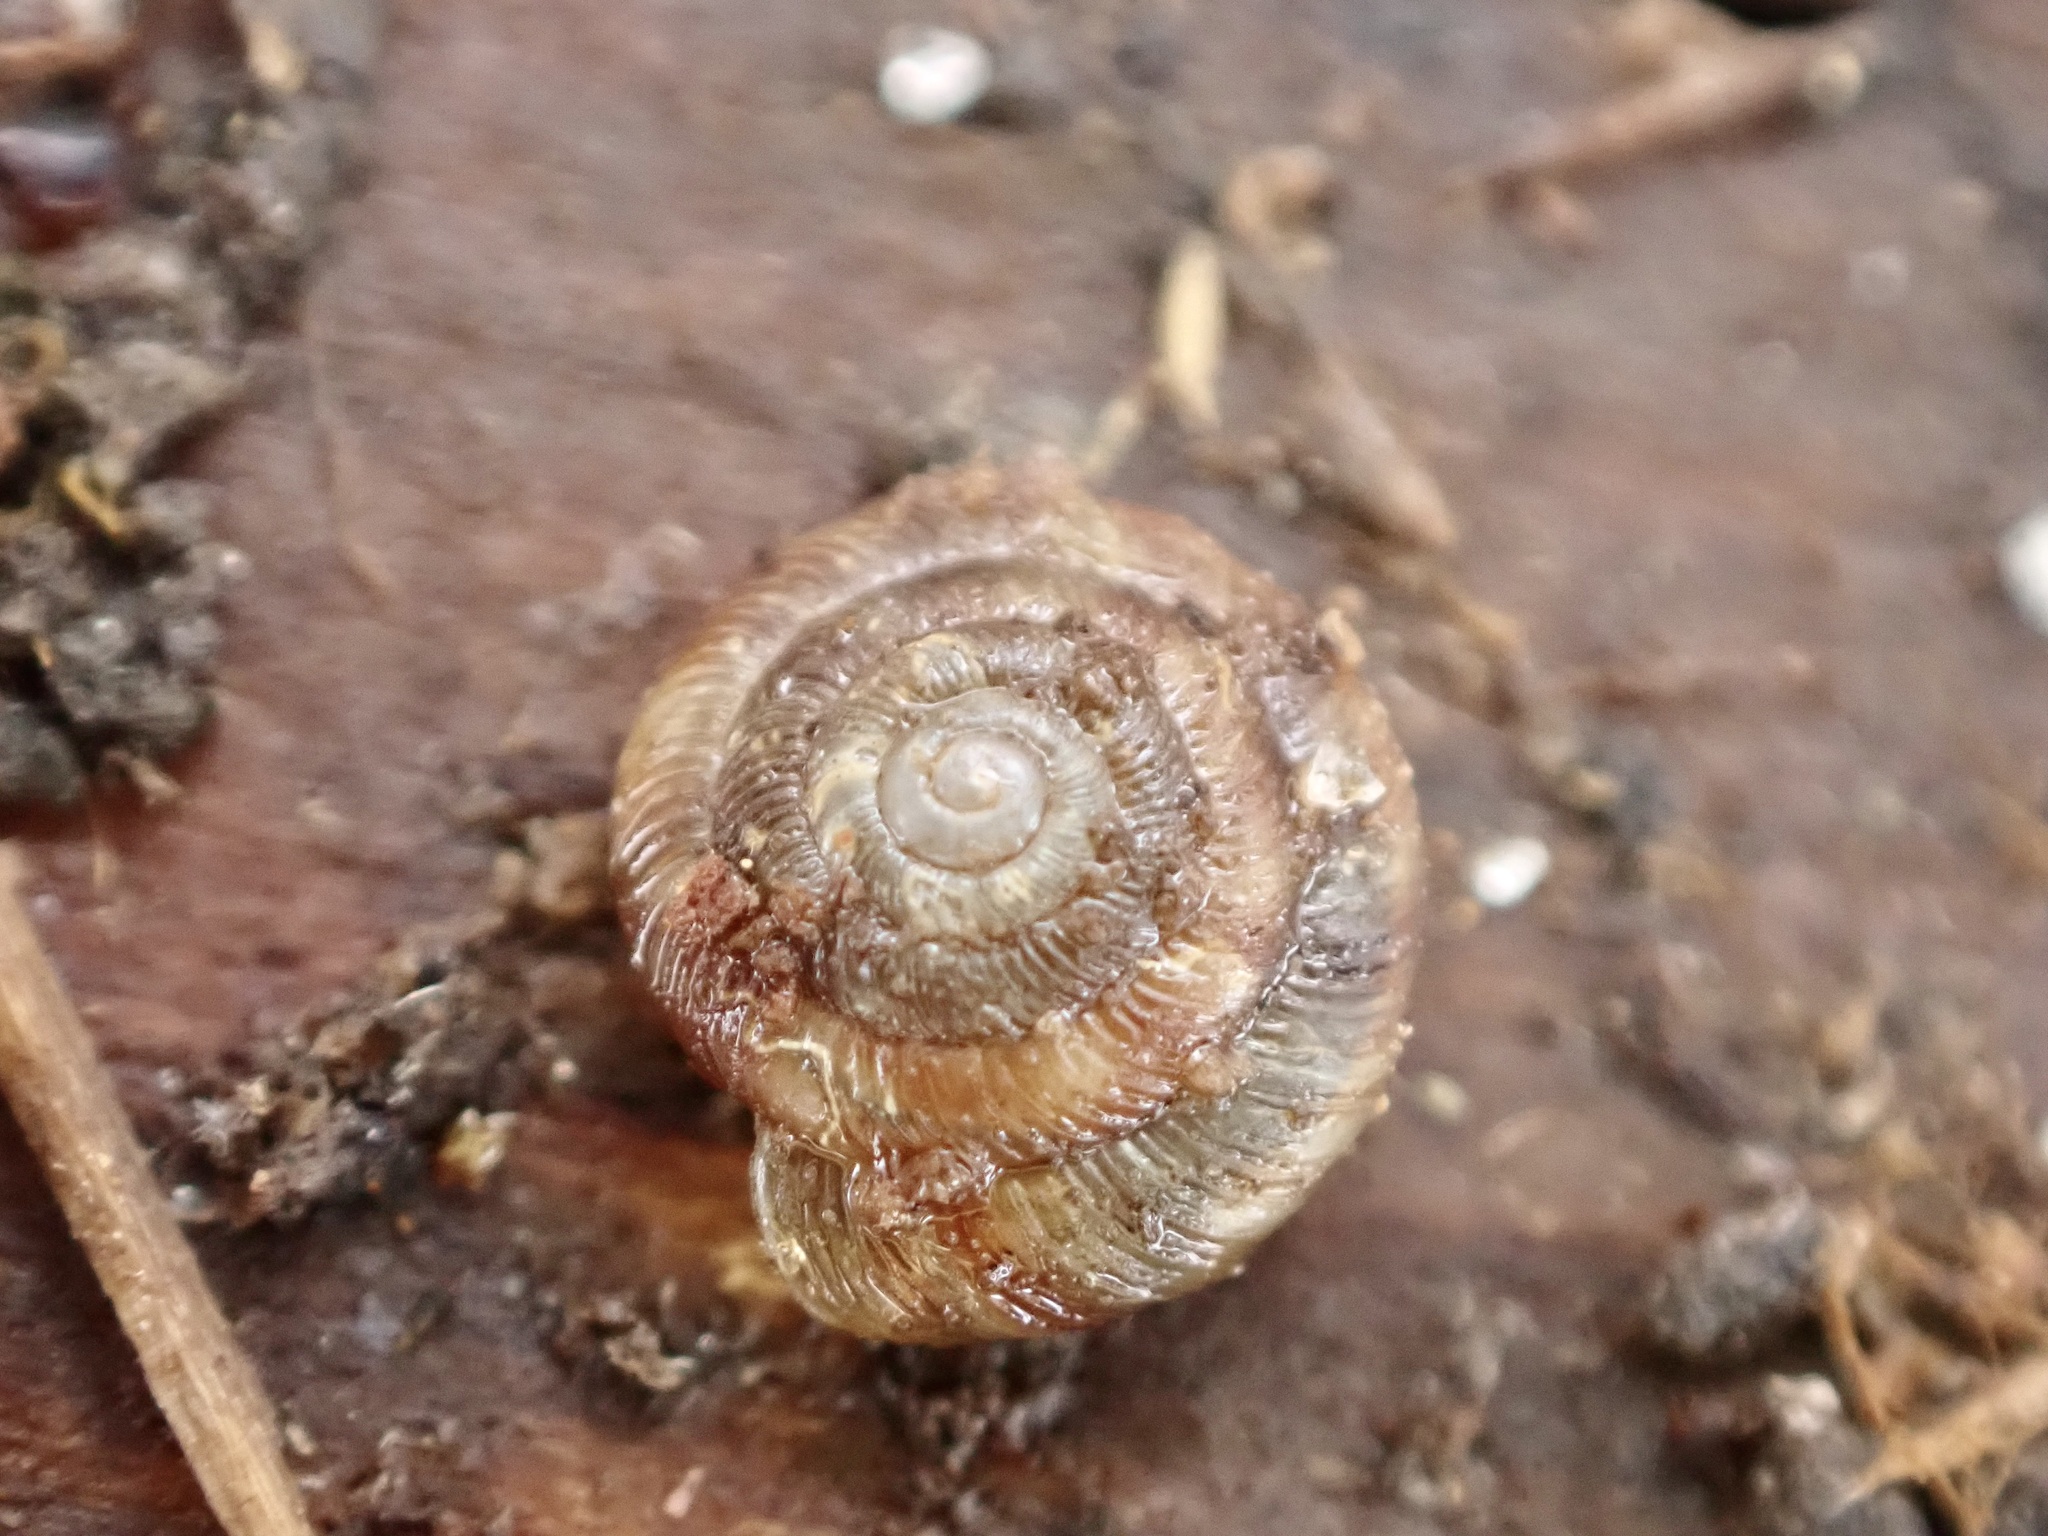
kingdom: Animalia
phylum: Mollusca
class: Gastropoda
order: Stylommatophora
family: Discidae
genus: Discus
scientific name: Discus rotundatus
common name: Rounded snail
